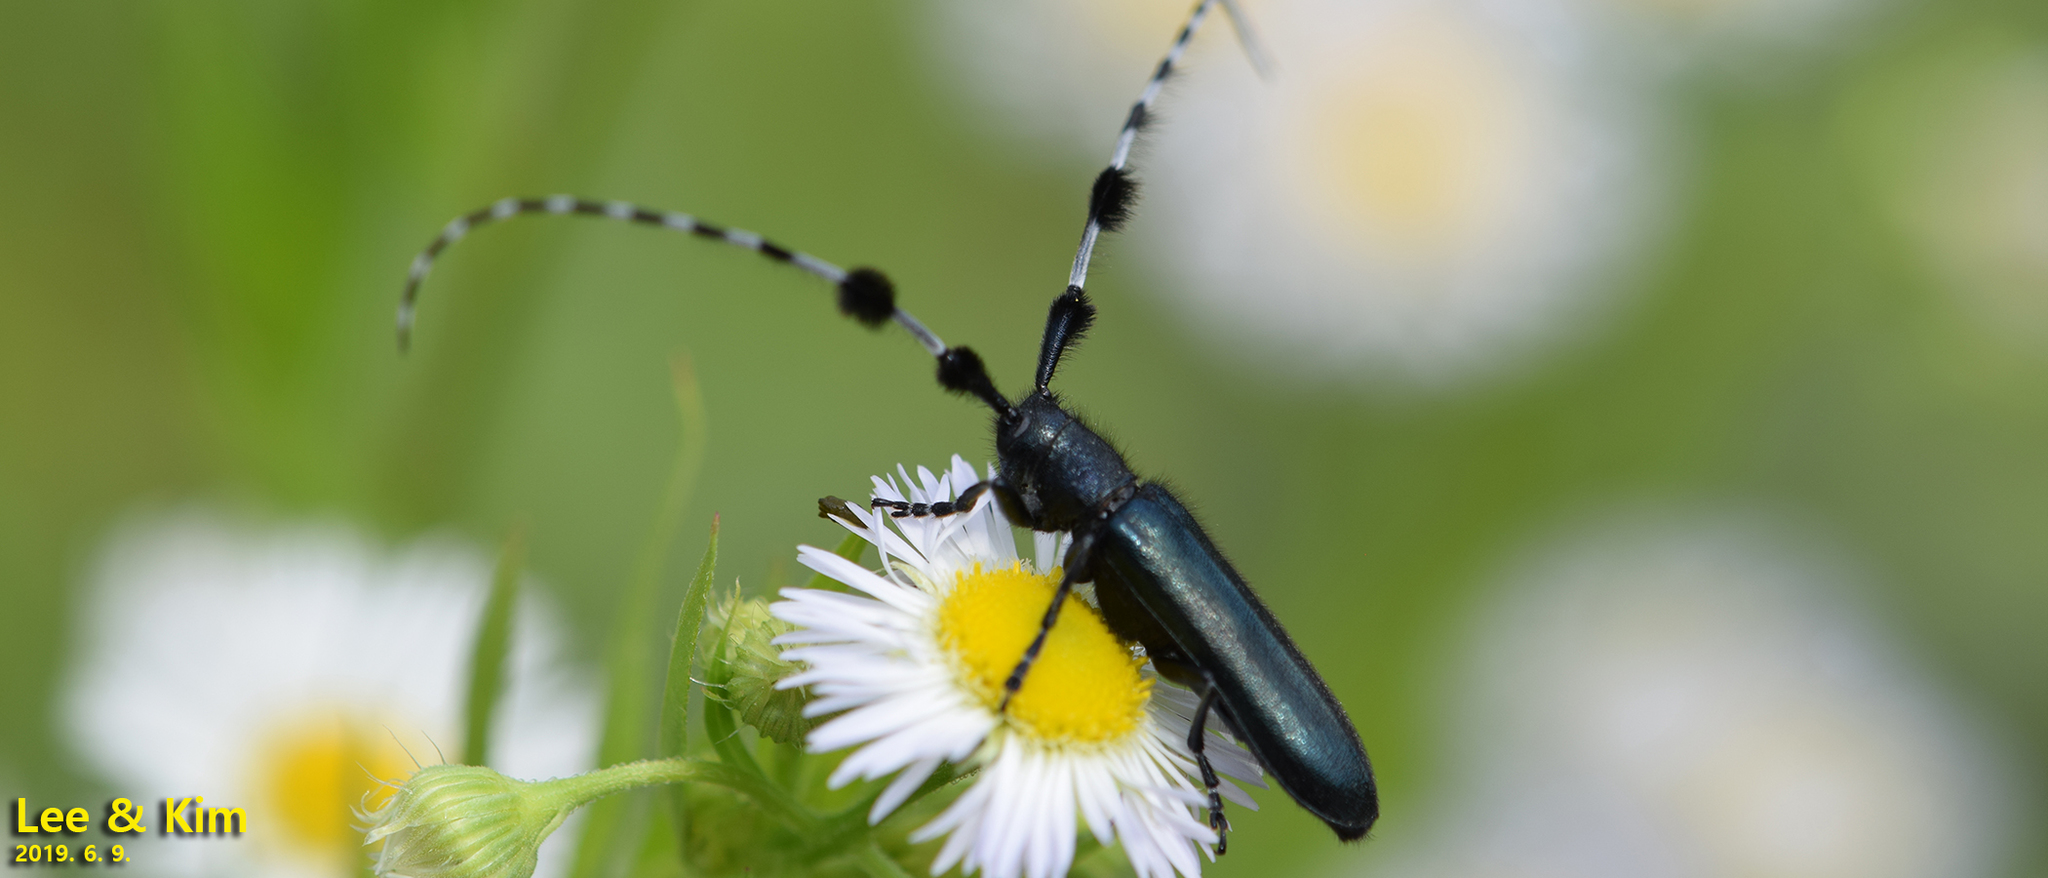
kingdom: Animalia
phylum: Arthropoda
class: Insecta
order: Coleoptera
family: Cerambycidae
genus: Agapanthia
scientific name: Agapanthia amurensis
